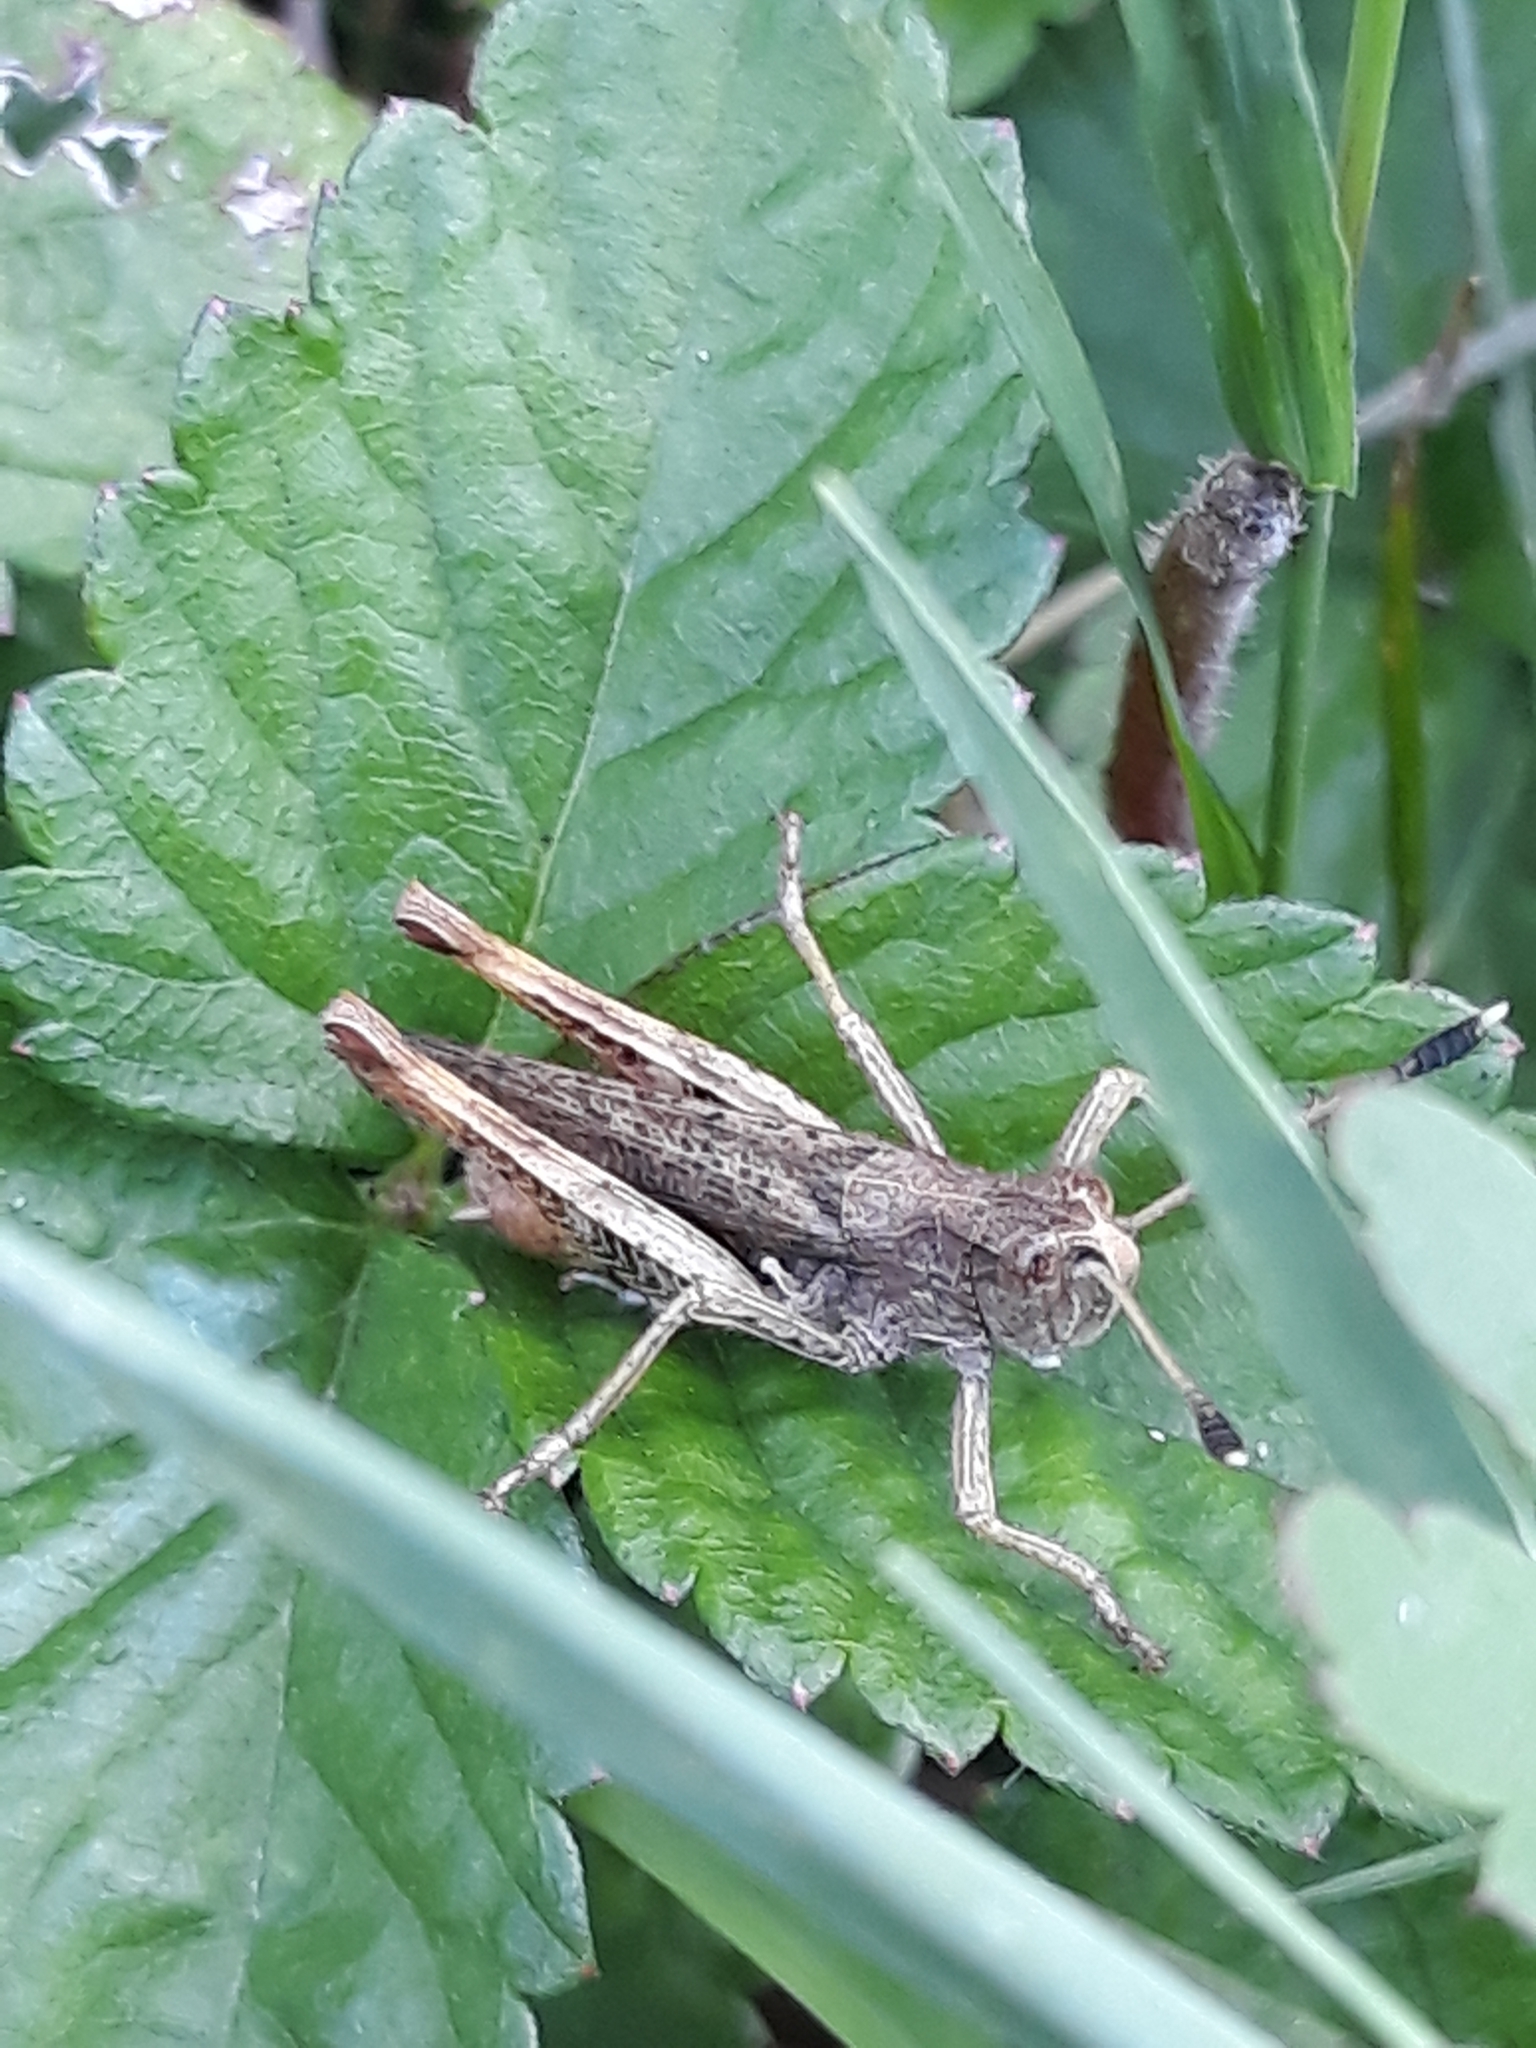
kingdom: Animalia
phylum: Arthropoda
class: Insecta
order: Orthoptera
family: Acrididae
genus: Gomphocerippus
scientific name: Gomphocerippus rufus
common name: Rufous grasshopper
